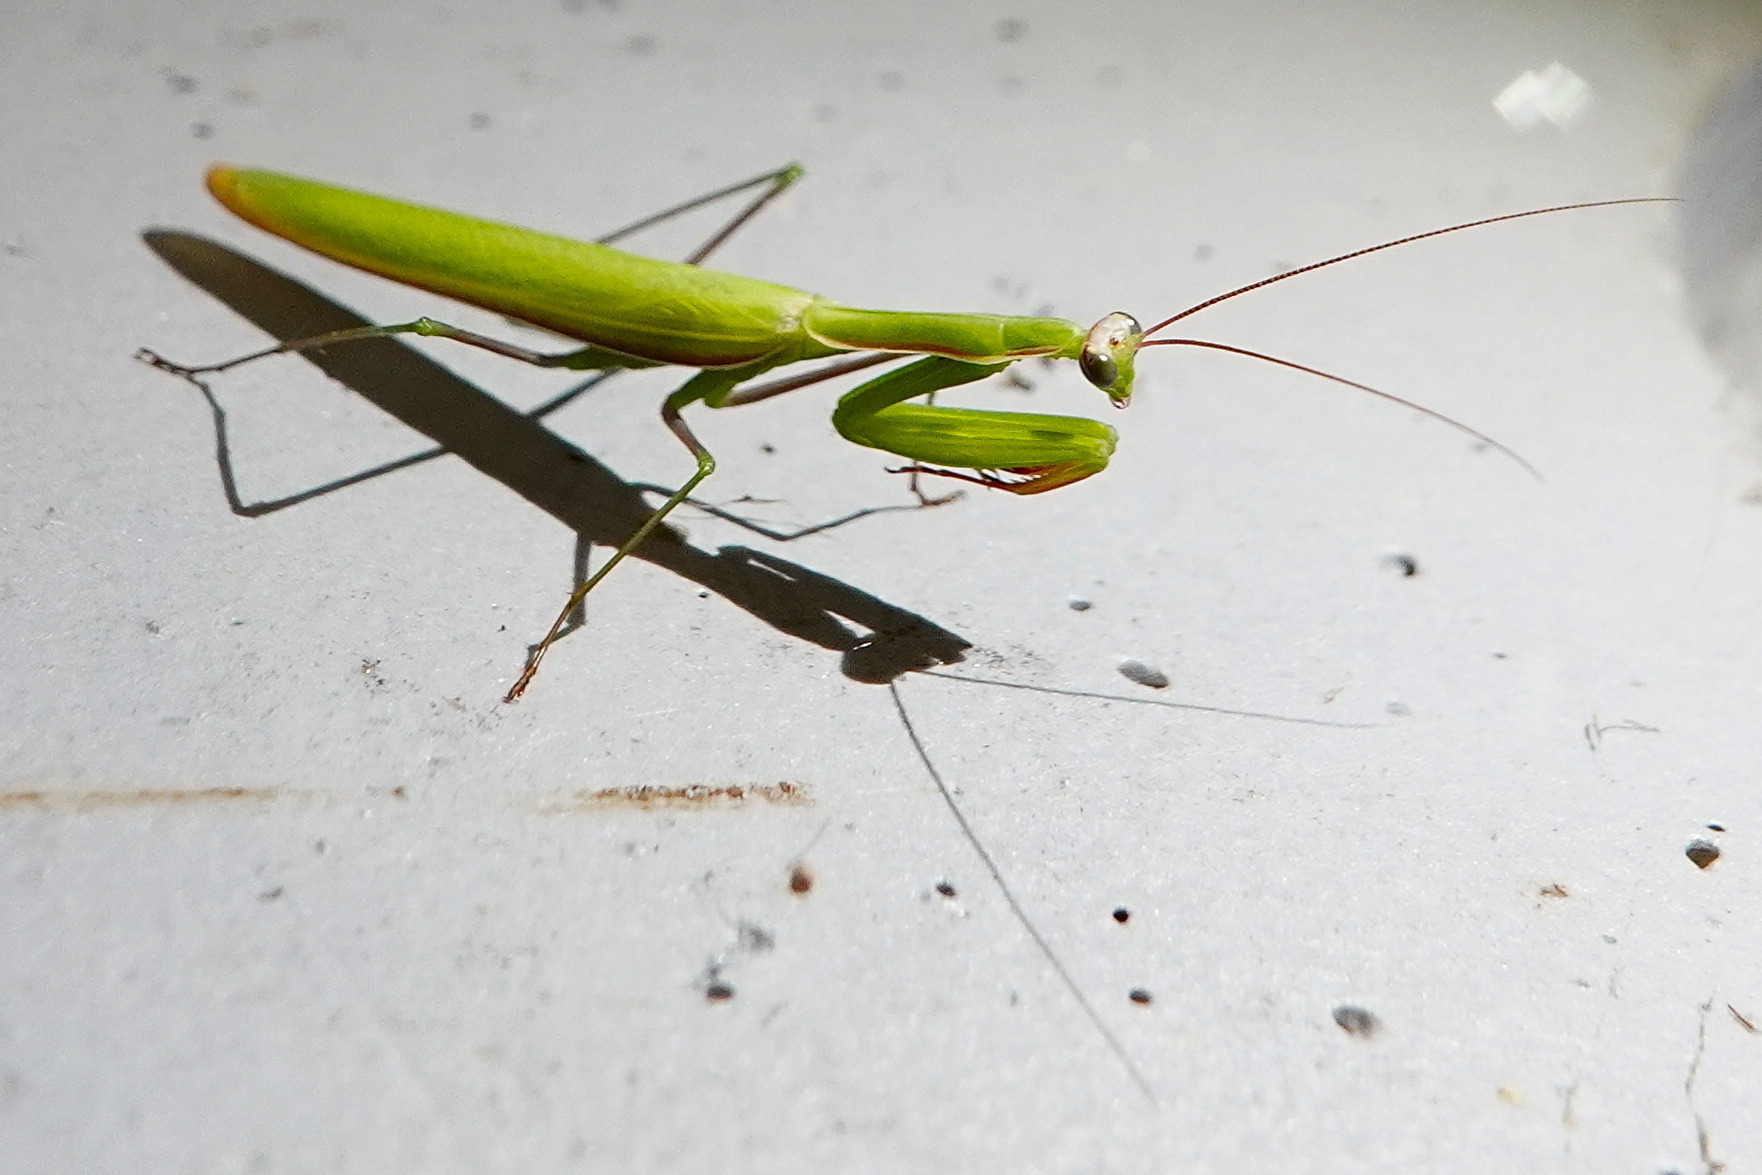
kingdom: Animalia
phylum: Arthropoda
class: Insecta
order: Mantodea
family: Mantidae
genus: Mantis
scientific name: Mantis religiosa
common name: Praying mantis
